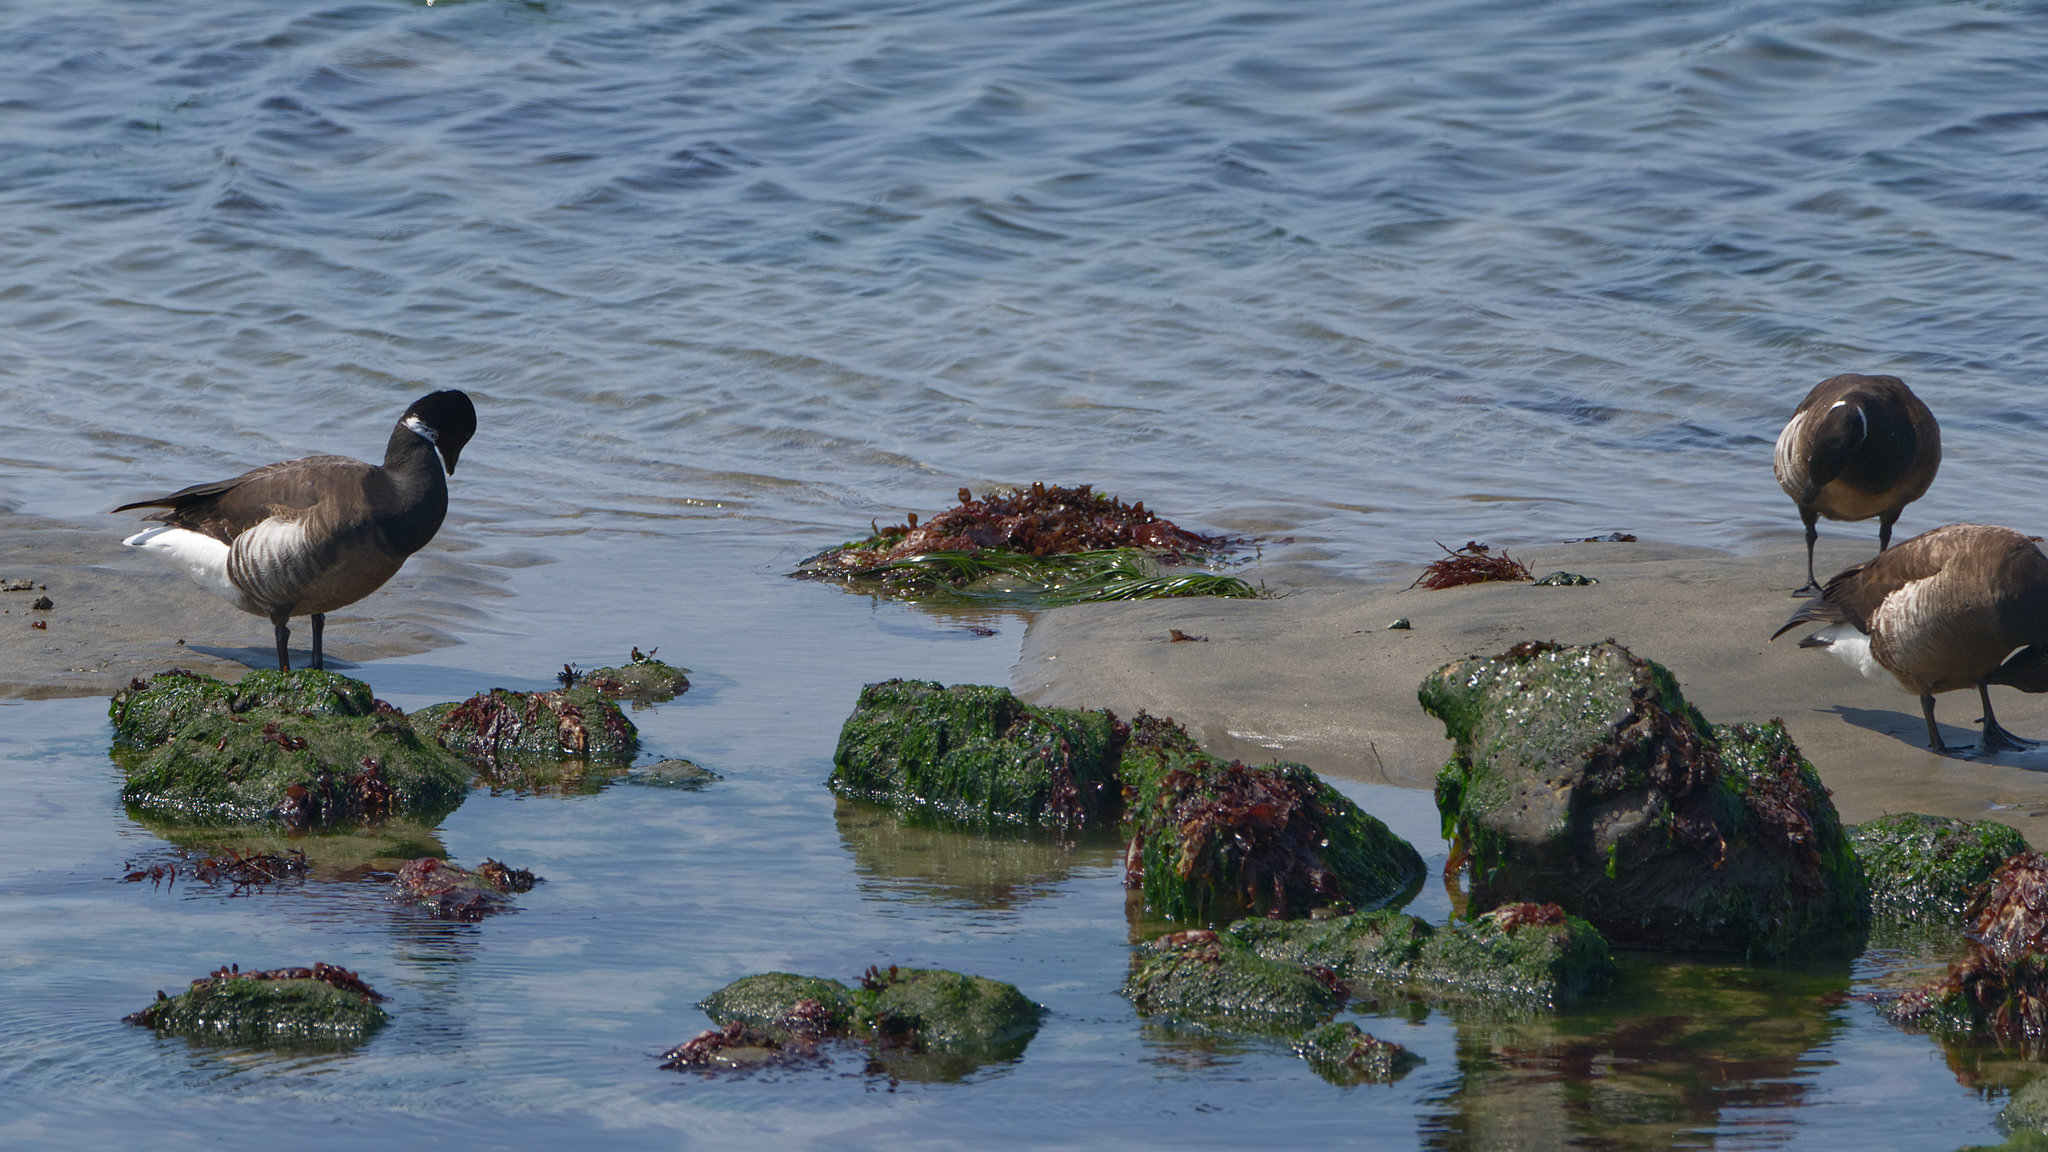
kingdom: Animalia
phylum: Chordata
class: Aves
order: Anseriformes
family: Anatidae
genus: Branta
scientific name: Branta bernicla
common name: Brant goose
